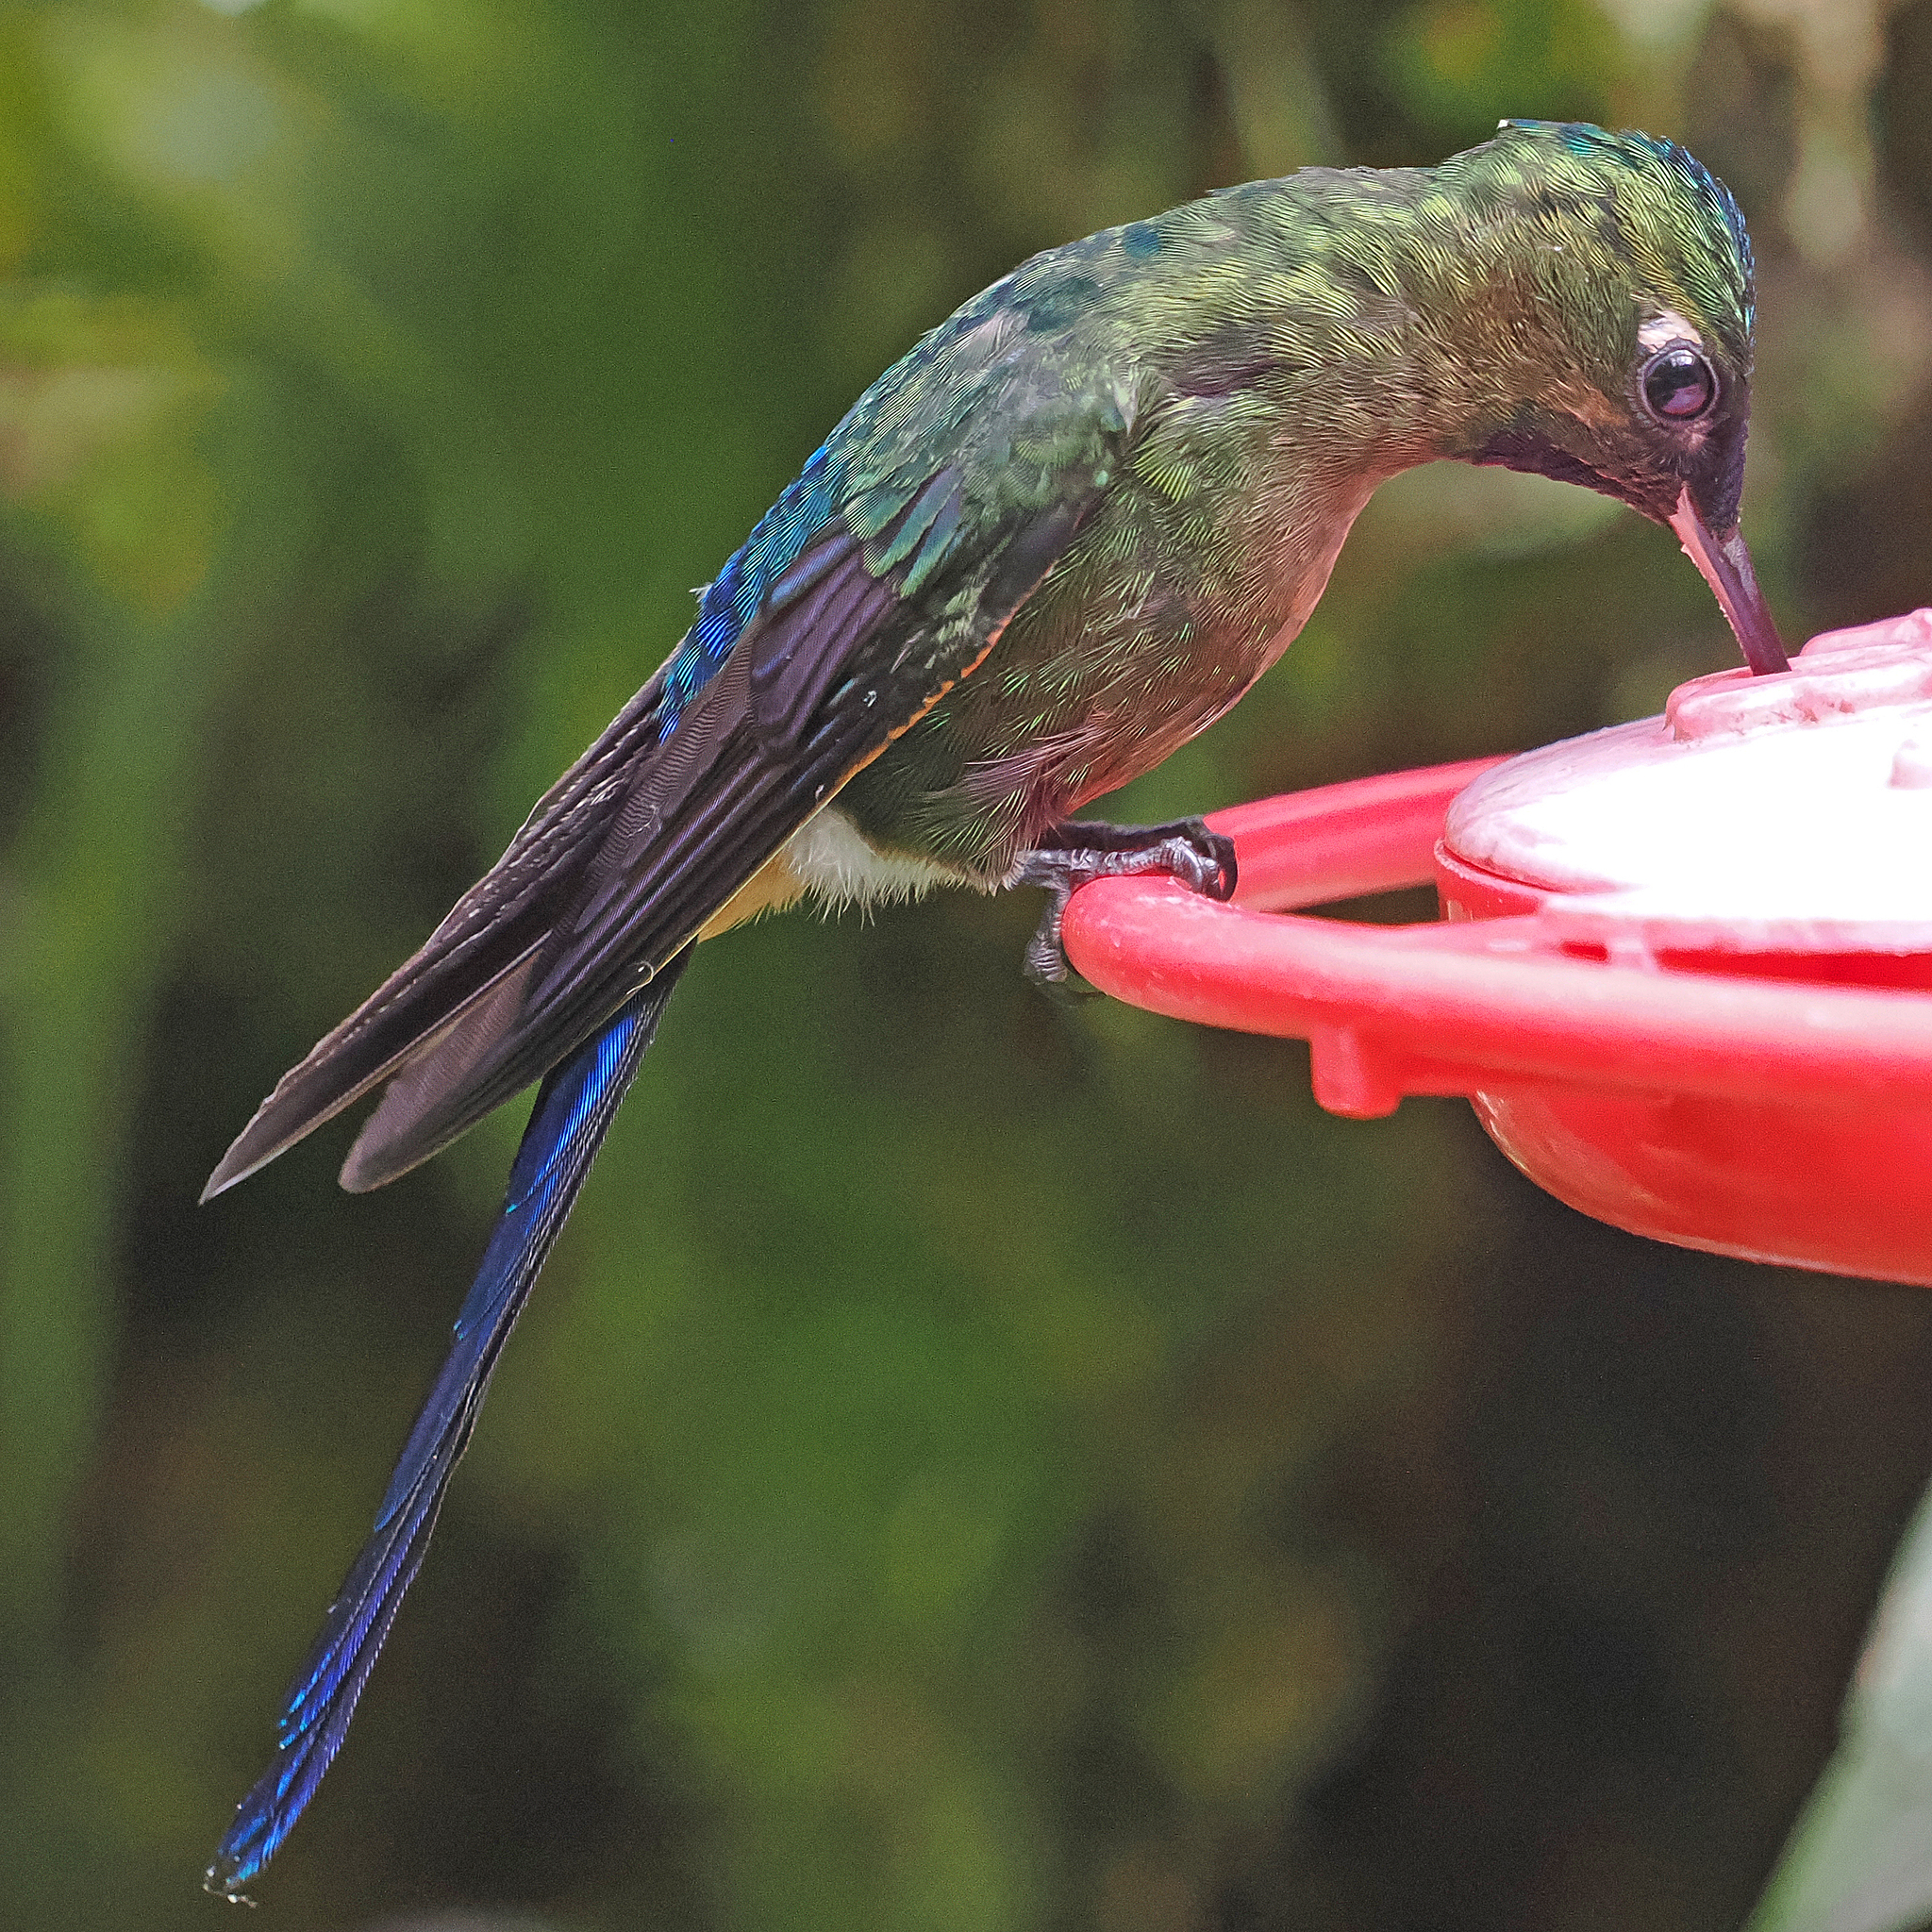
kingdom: Animalia
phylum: Chordata
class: Aves
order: Apodiformes
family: Trochilidae
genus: Aglaiocercus
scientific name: Aglaiocercus coelestis
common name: Violet-tailed sylph
